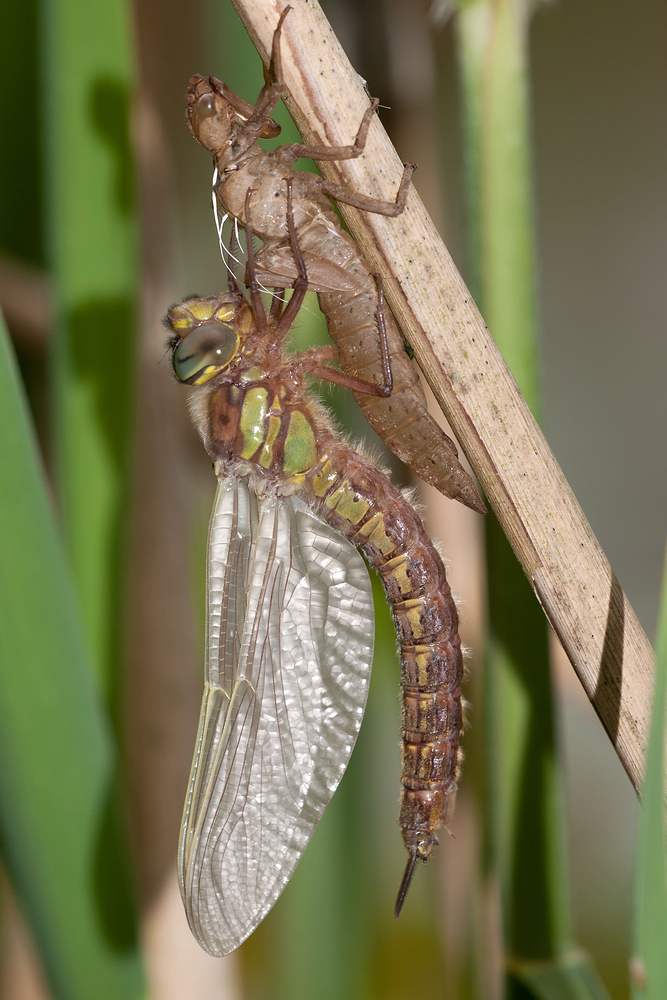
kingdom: Animalia
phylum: Arthropoda
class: Insecta
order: Odonata
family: Aeshnidae
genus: Brachytron
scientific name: Brachytron pratense
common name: Hairy hawker
